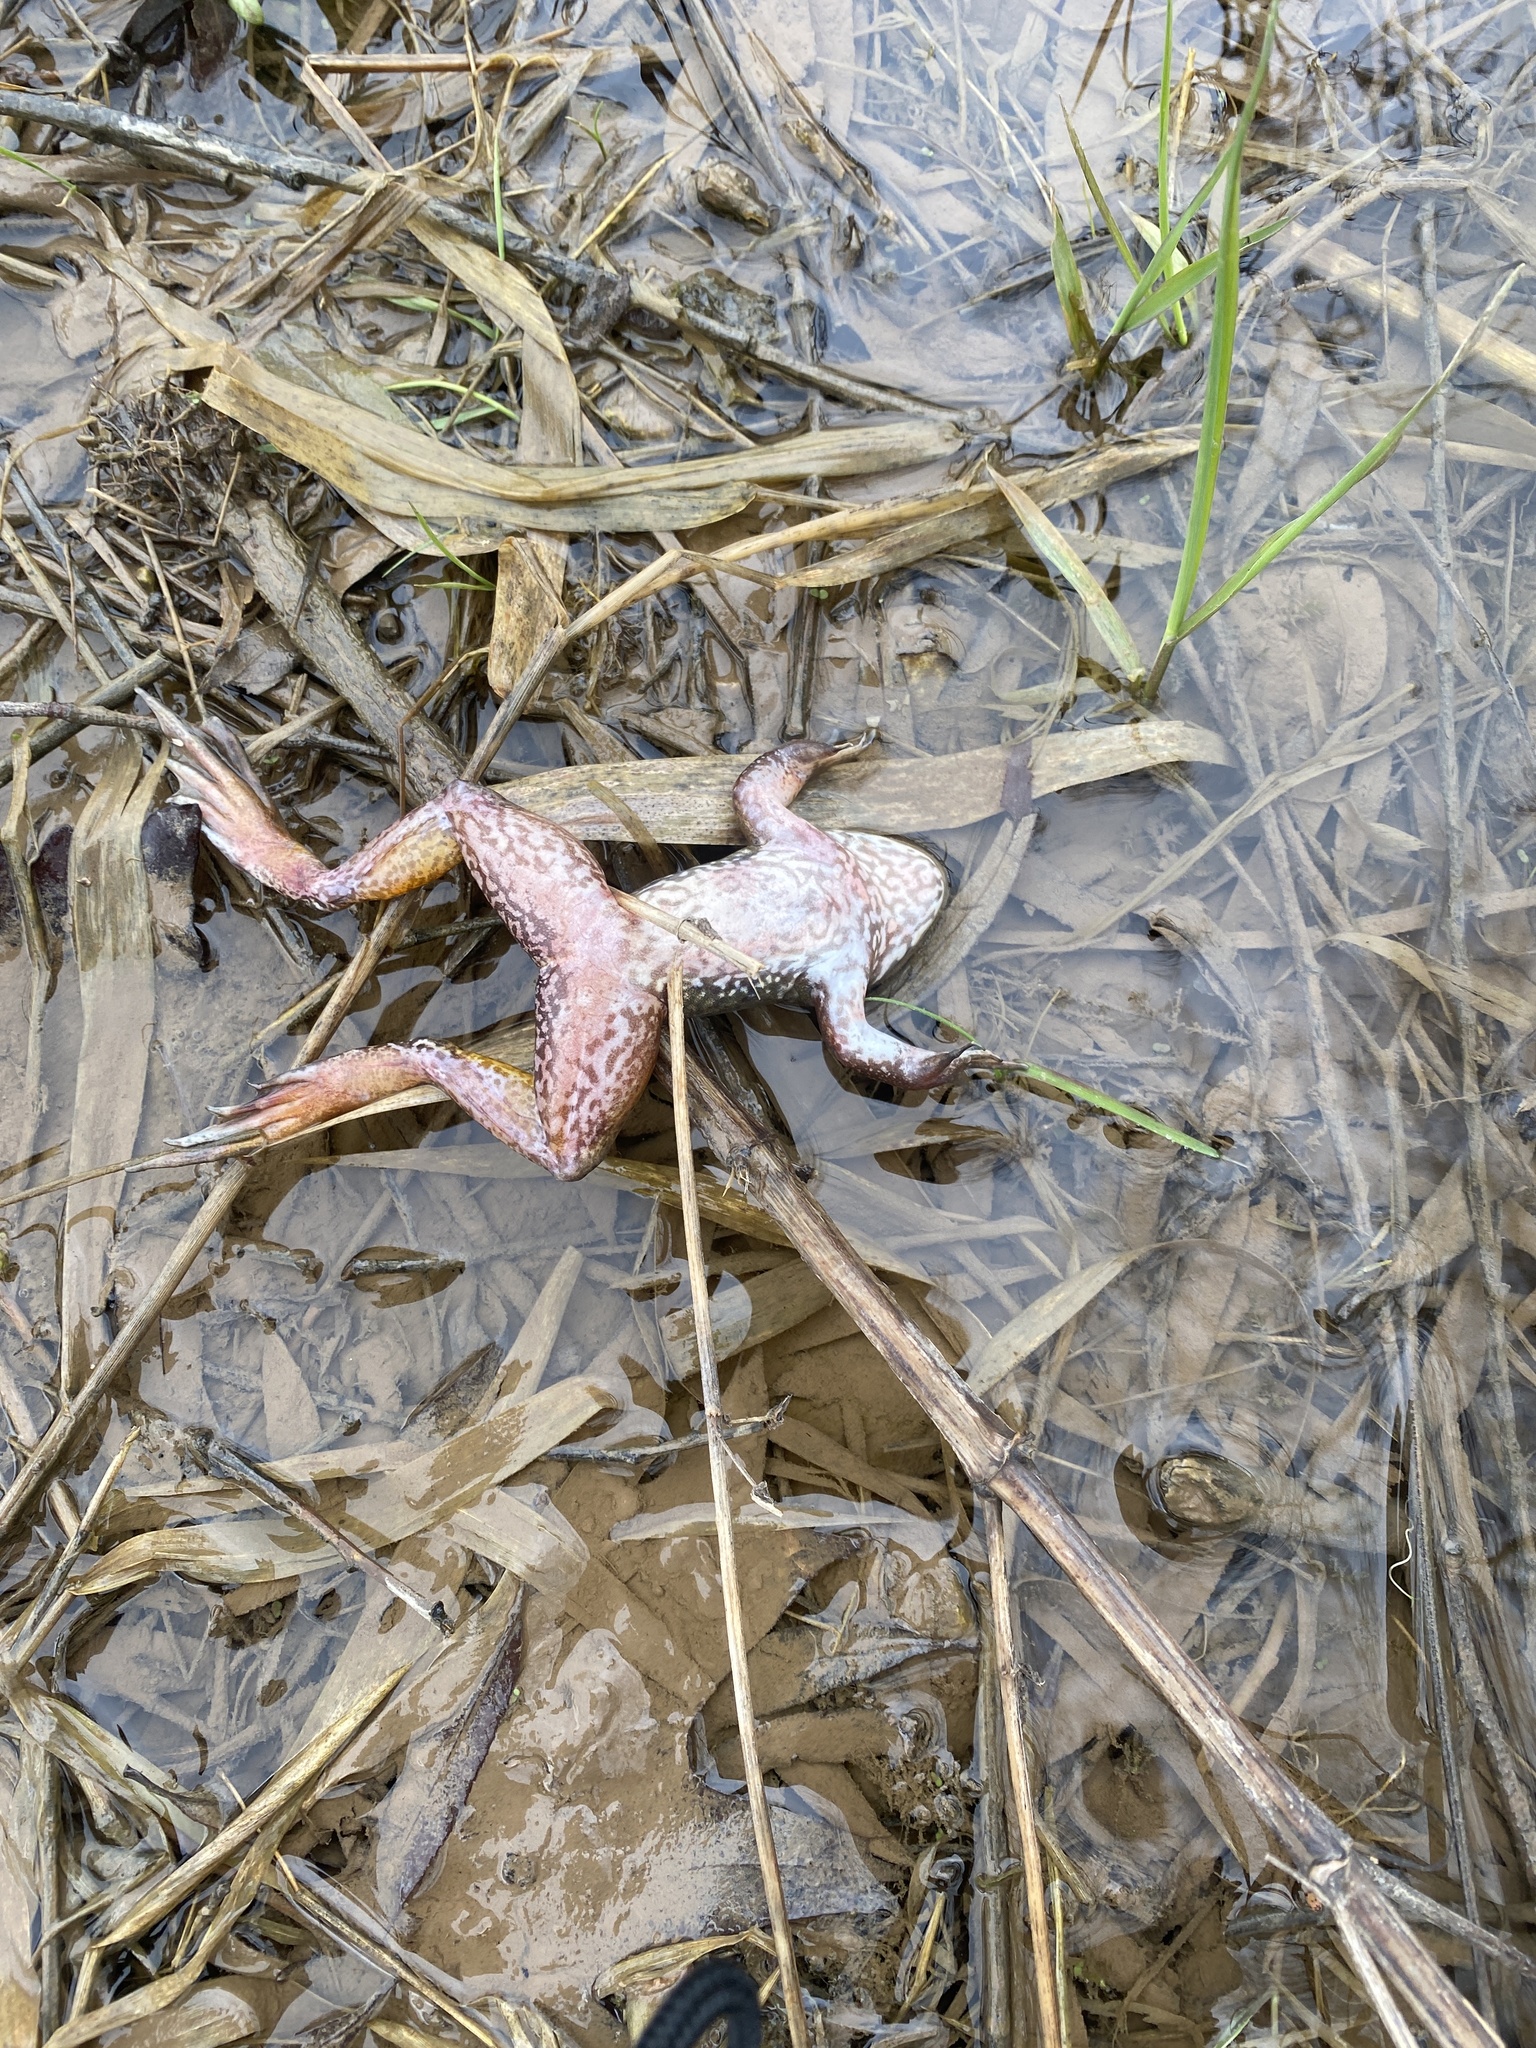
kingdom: Animalia
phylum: Chordata
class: Amphibia
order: Anura
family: Ranidae
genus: Lithobates
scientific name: Lithobates clamitans
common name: Green frog
